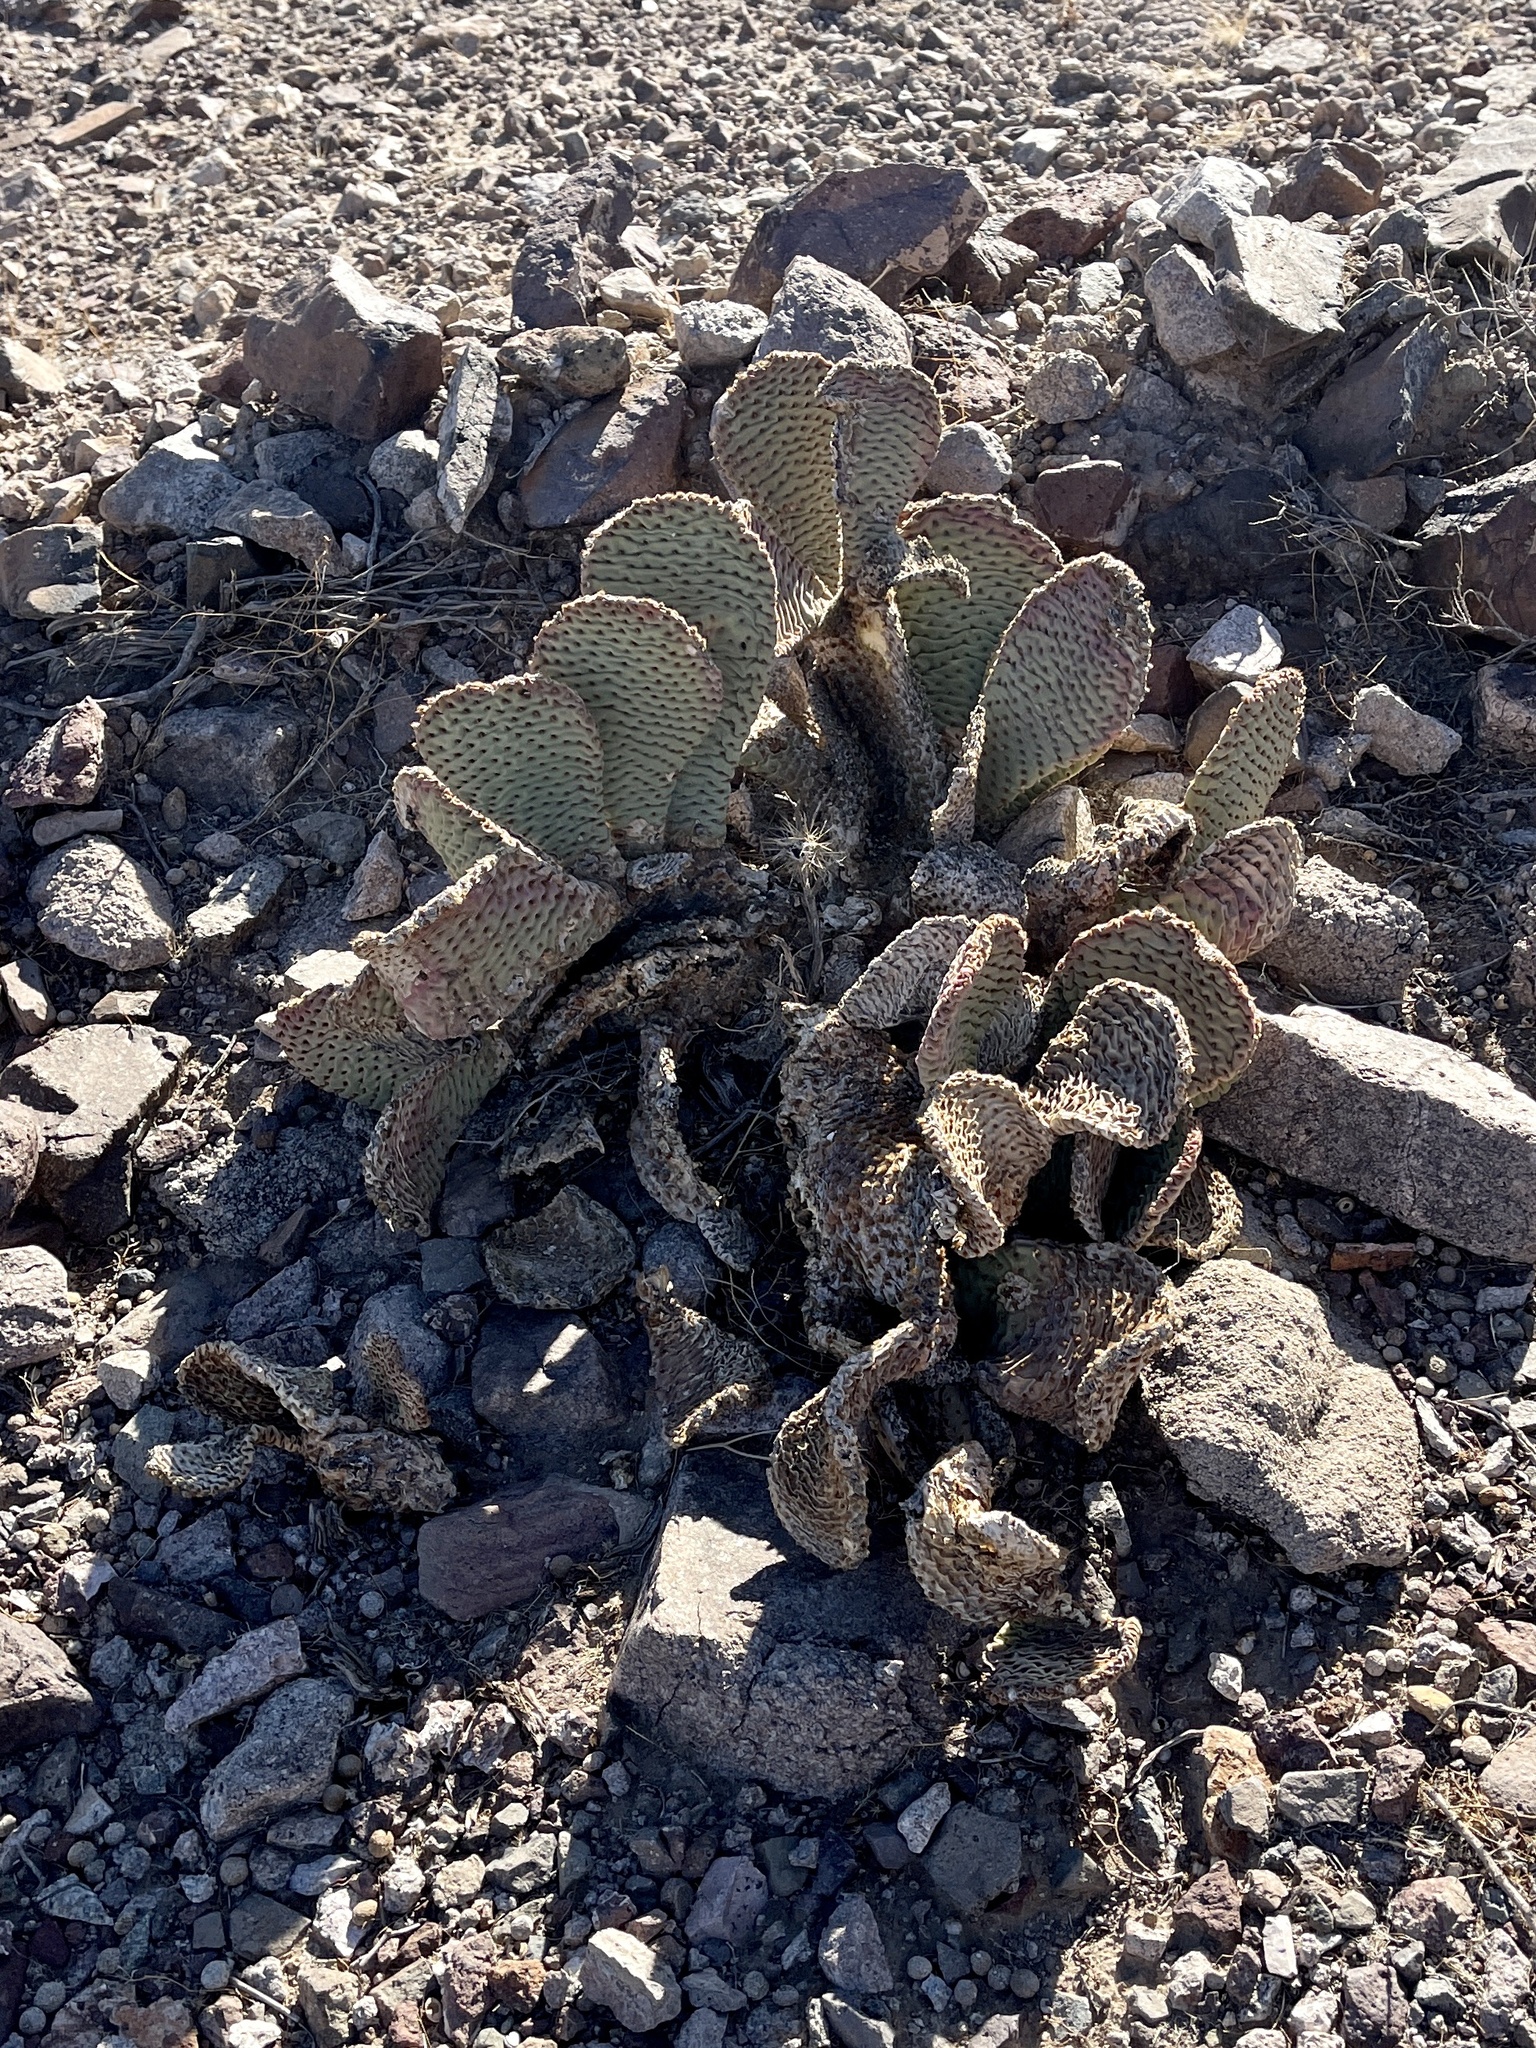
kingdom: Plantae
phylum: Tracheophyta
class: Magnoliopsida
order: Caryophyllales
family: Cactaceae
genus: Opuntia
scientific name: Opuntia basilaris
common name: Beavertail prickly-pear
